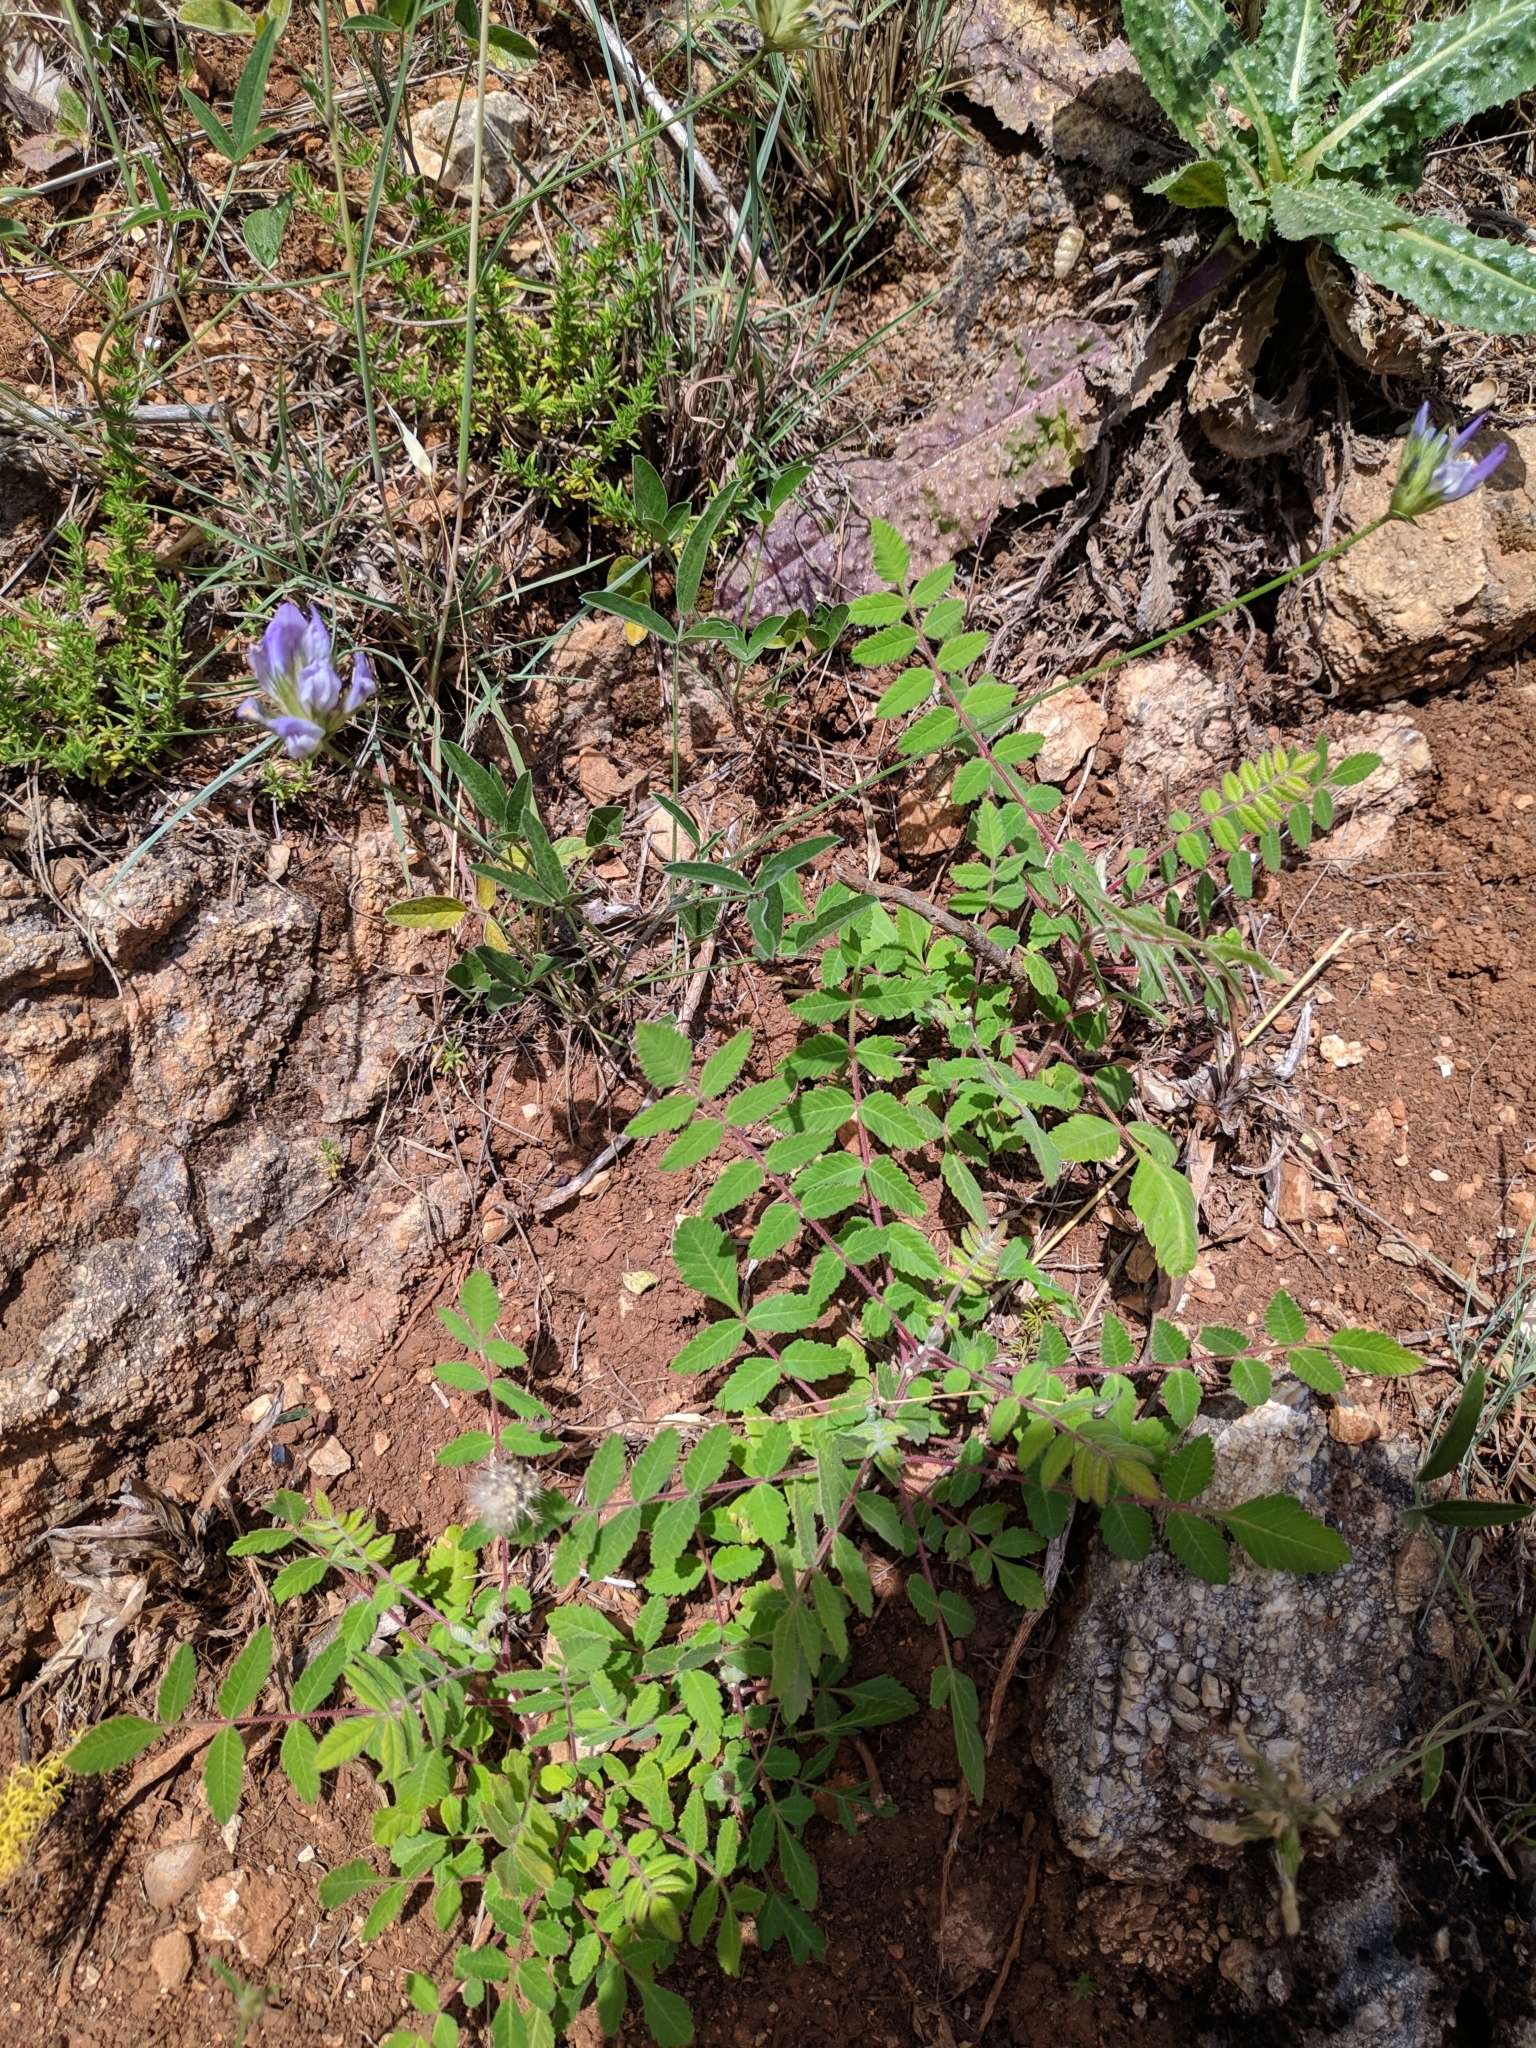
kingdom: Plantae
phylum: Tracheophyta
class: Magnoliopsida
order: Sapindales
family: Anacardiaceae
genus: Rhus
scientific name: Rhus coriaria
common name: Tanner's sumach
